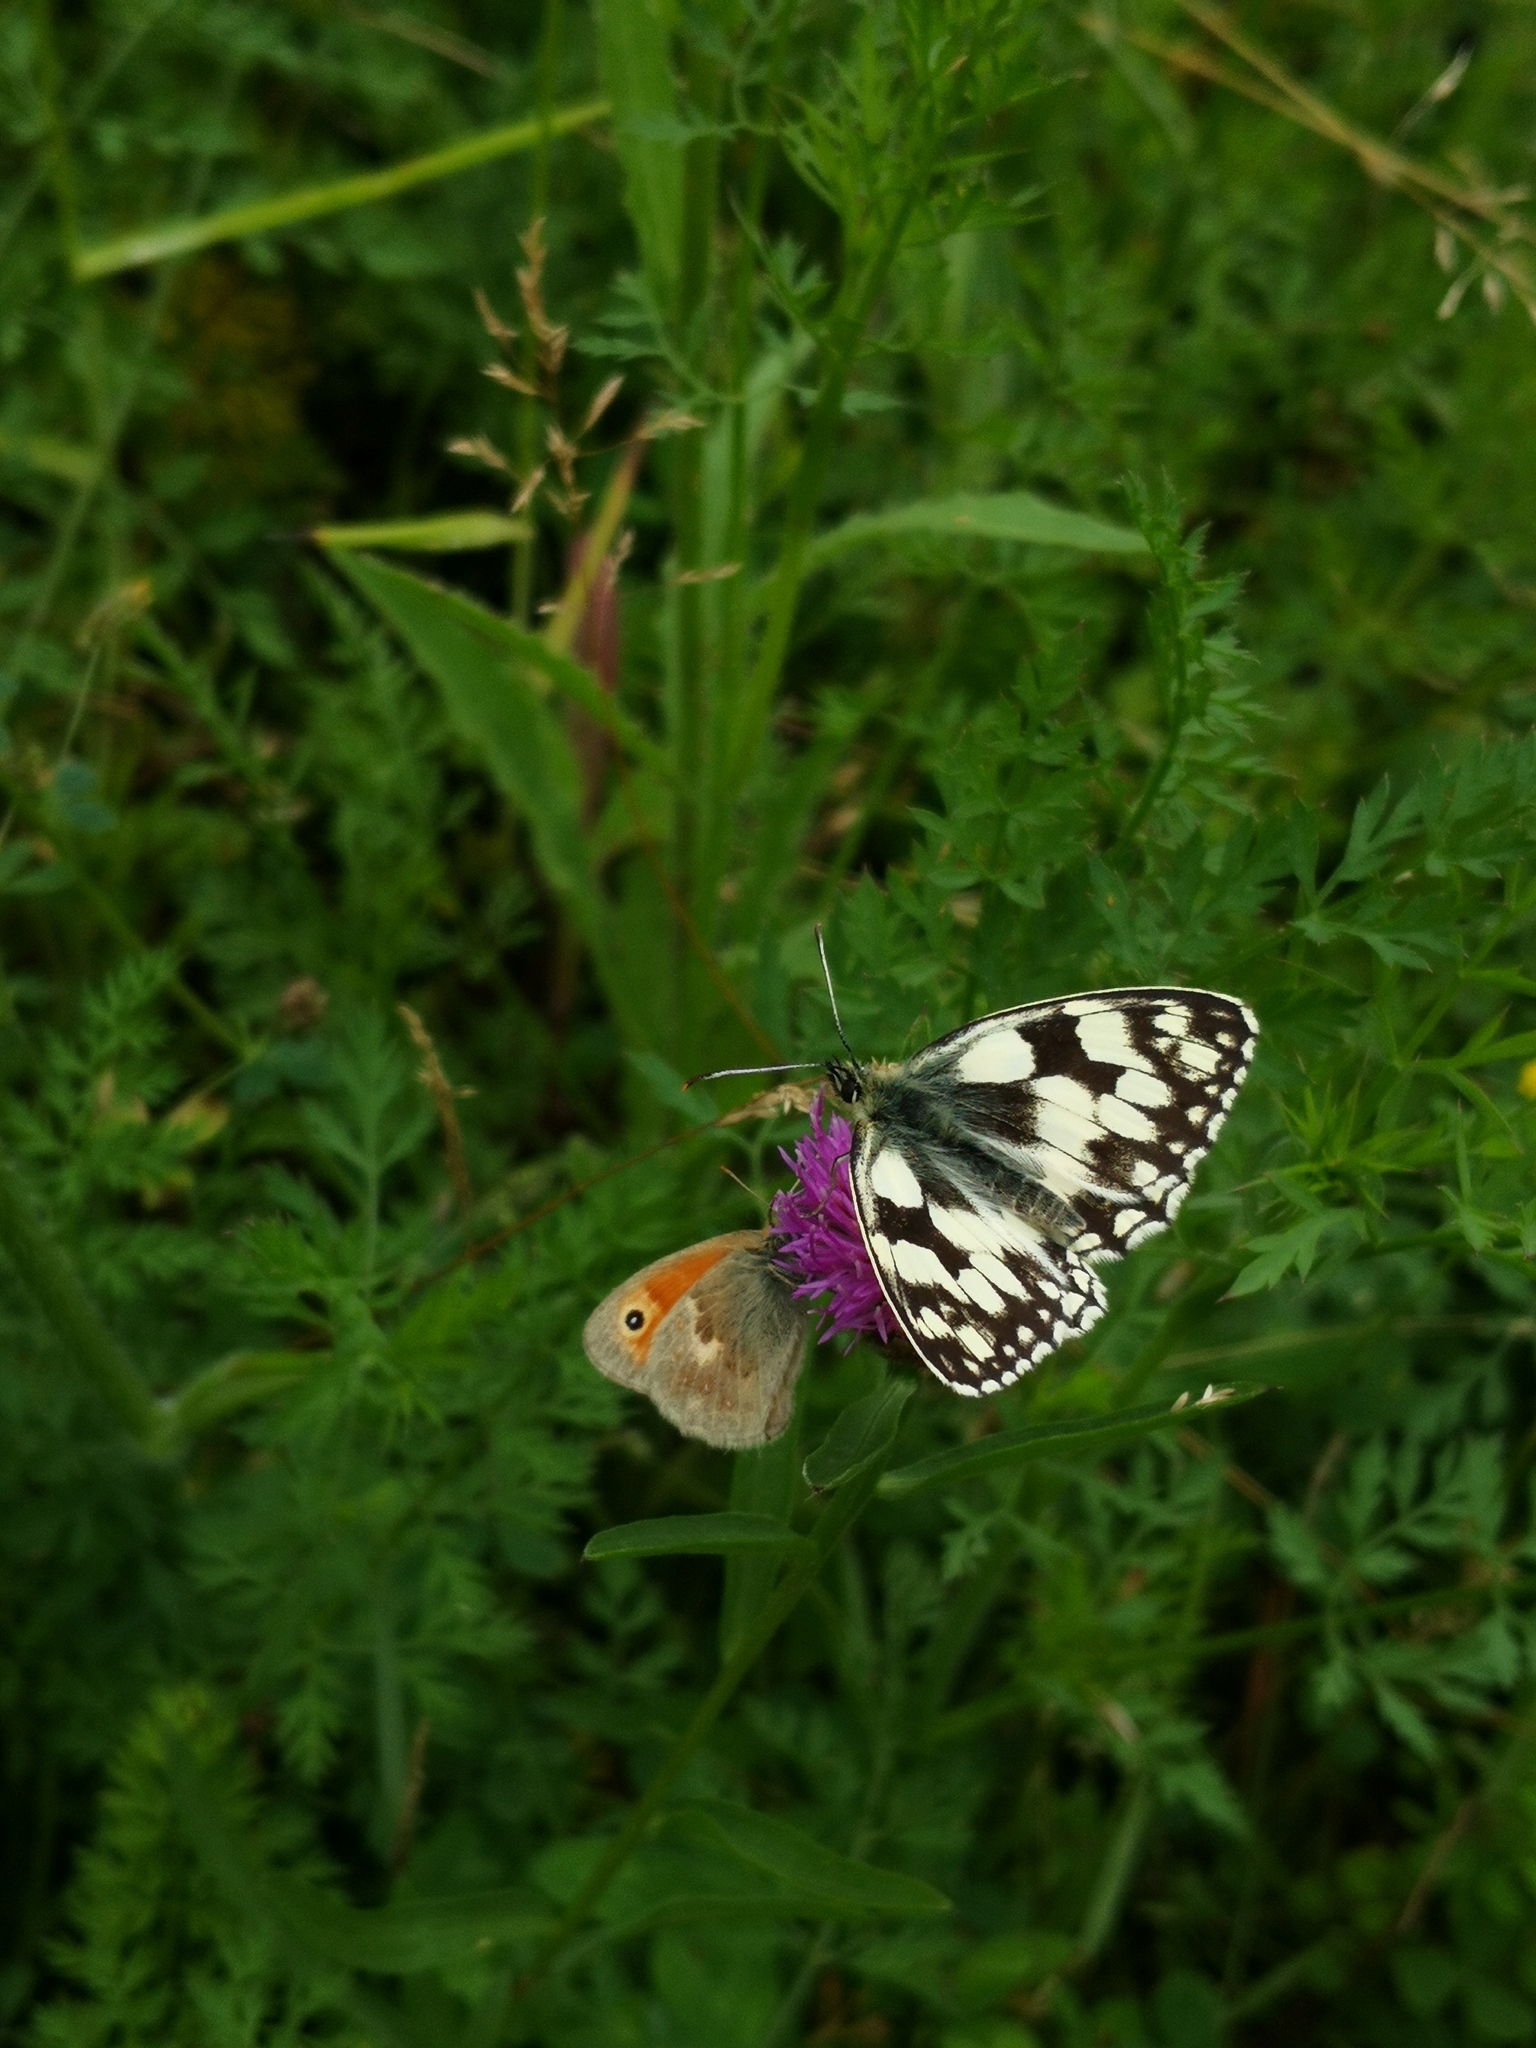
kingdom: Animalia
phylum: Arthropoda
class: Insecta
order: Lepidoptera
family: Nymphalidae
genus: Melanargia
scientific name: Melanargia galathea
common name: Marbled white
